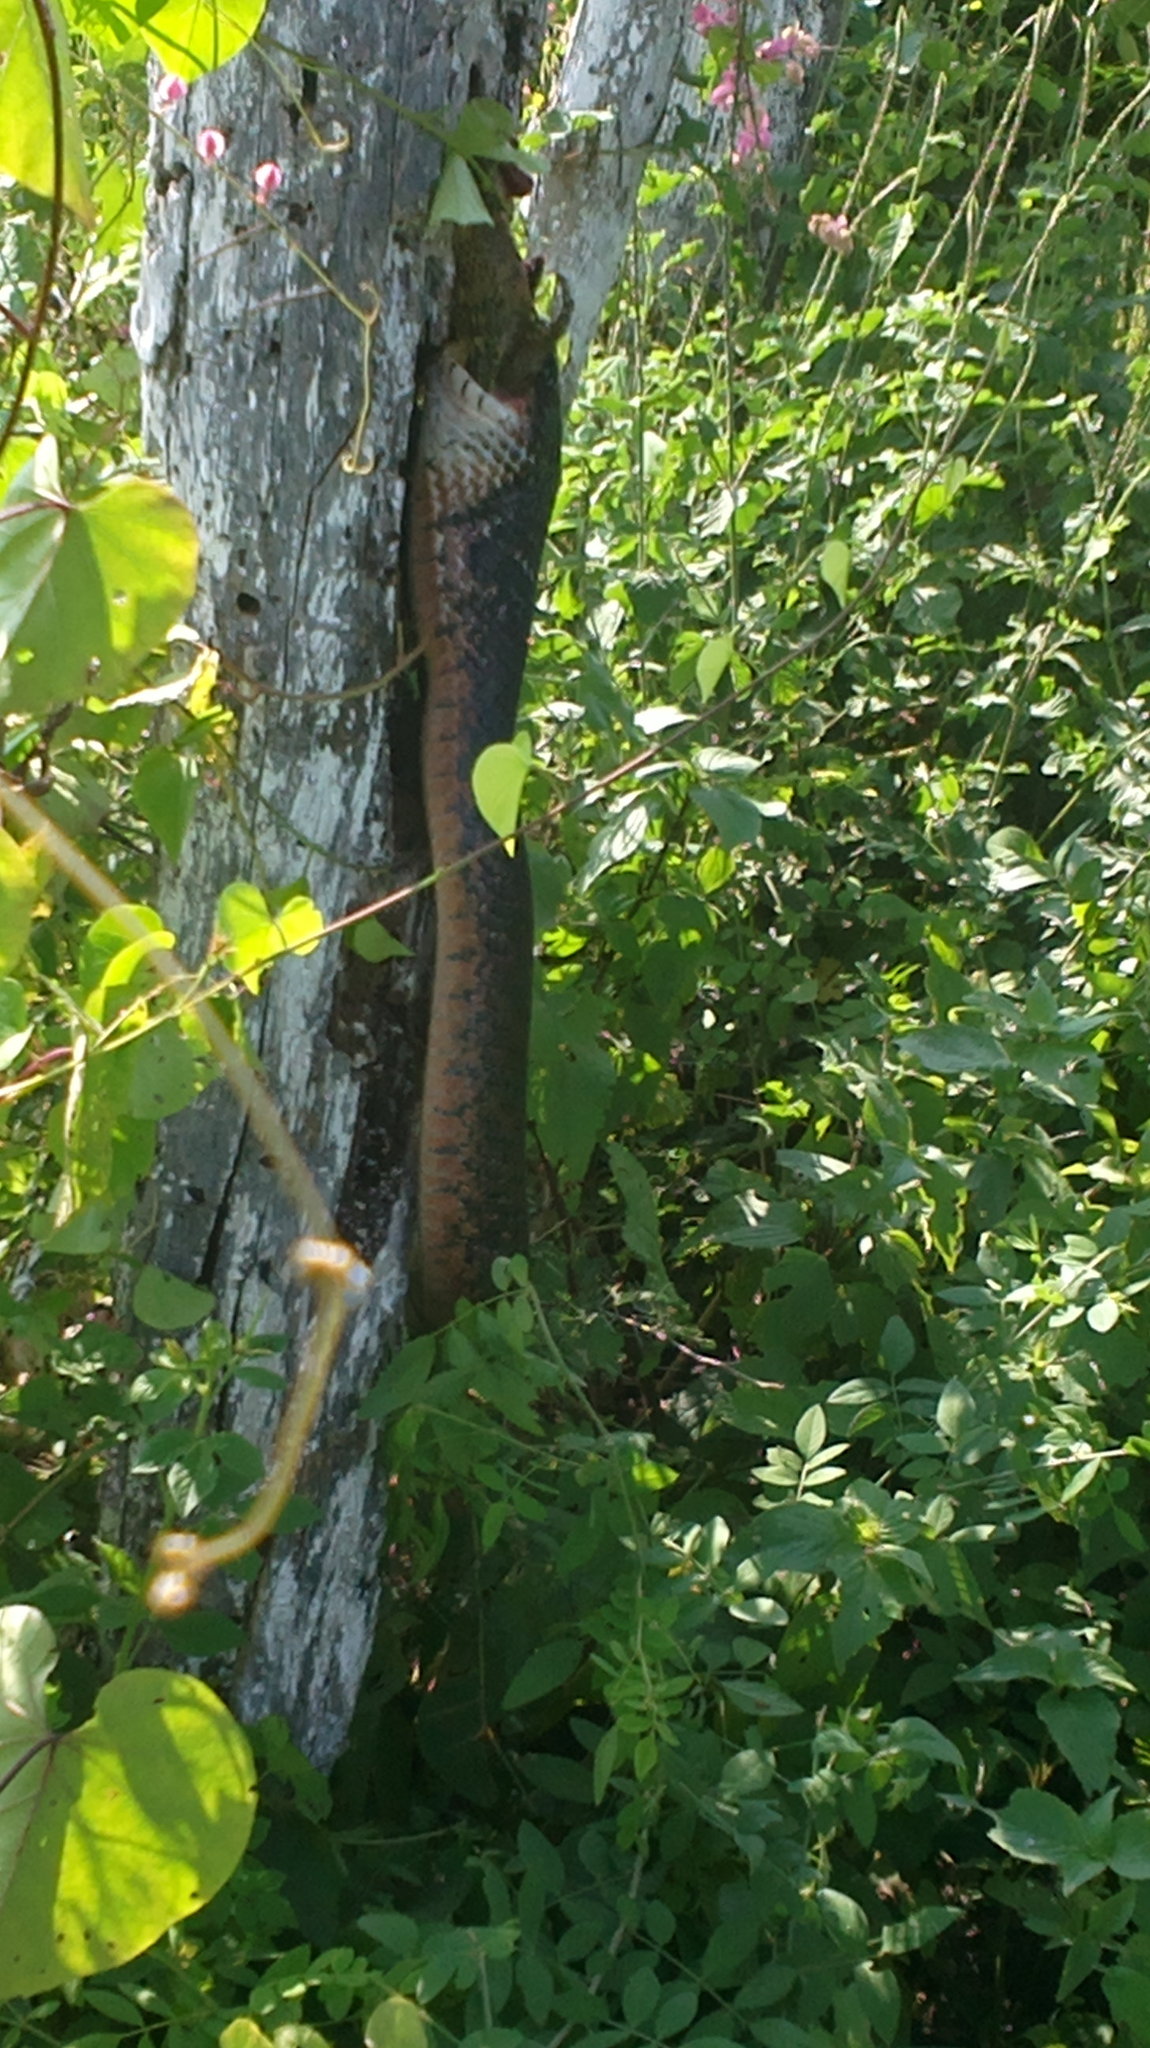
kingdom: Animalia
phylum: Chordata
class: Squamata
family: Colubridae
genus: Drymarchon
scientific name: Drymarchon melanurus
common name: Central american indigo snake
